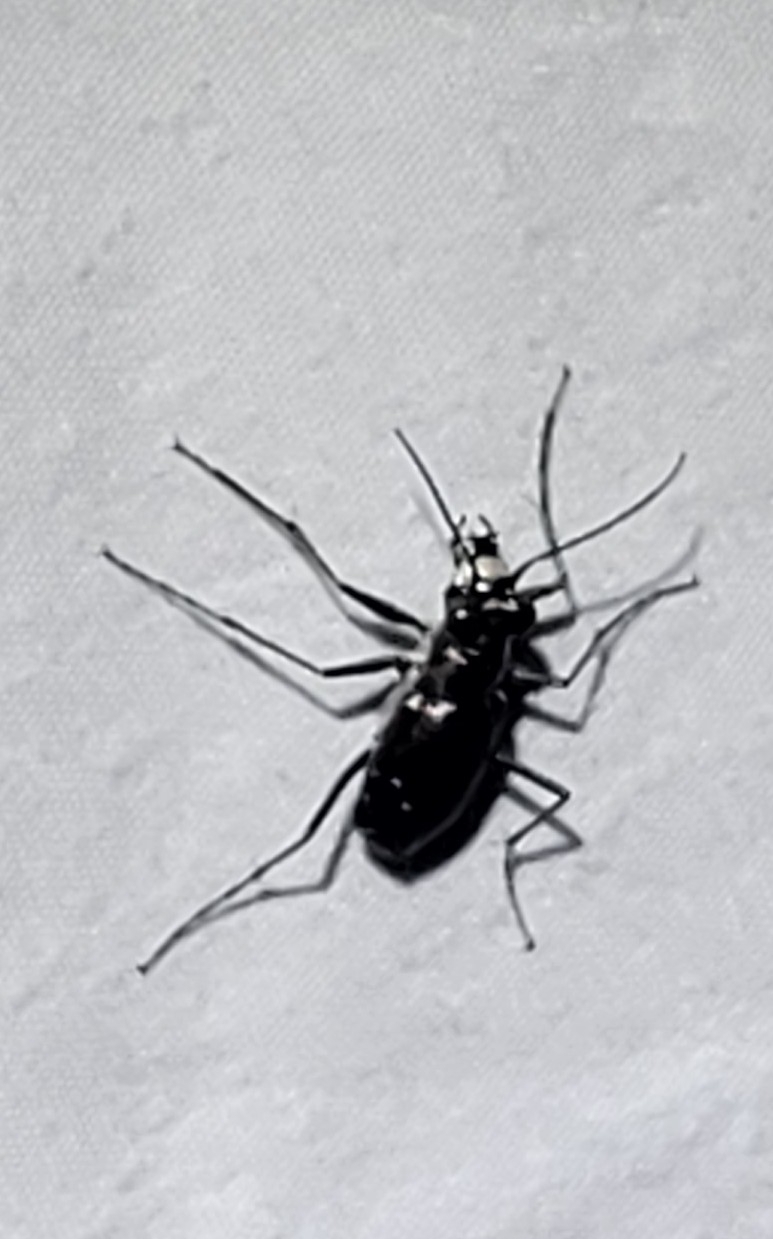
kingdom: Animalia
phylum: Arthropoda
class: Insecta
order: Coleoptera
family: Carabidae
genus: Cicindela
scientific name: Cicindela punctulata
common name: Punctured tiger beetle
